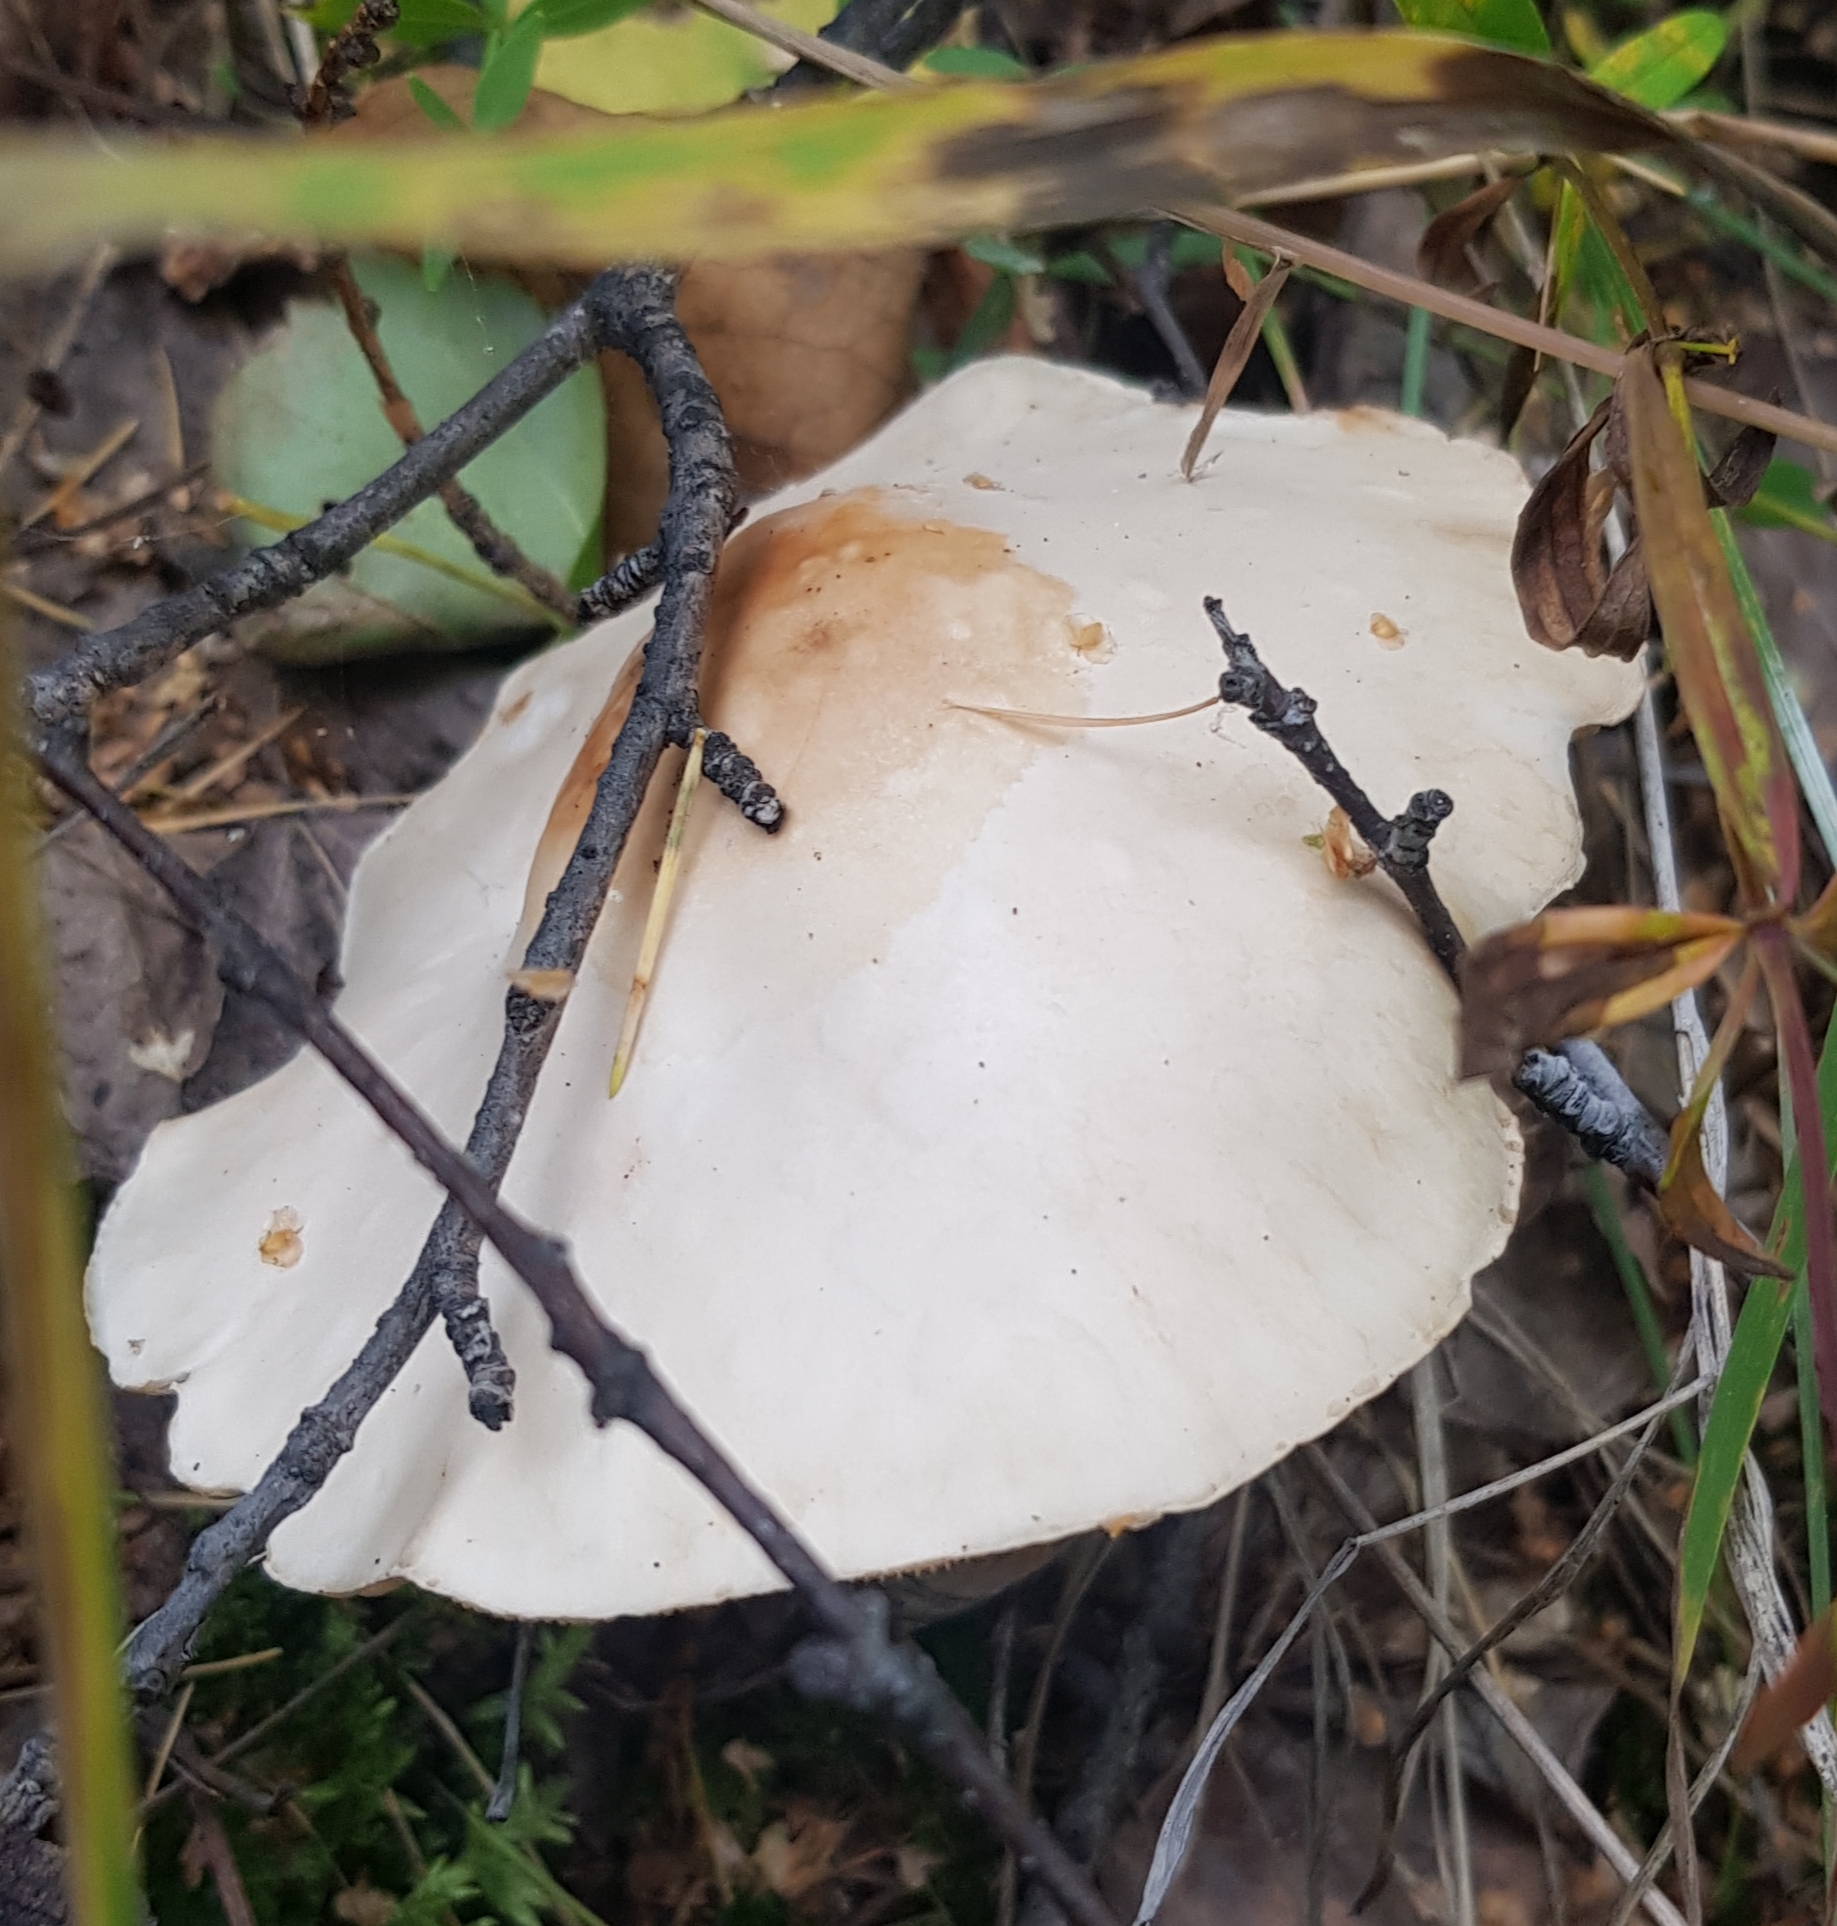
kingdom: Fungi
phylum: Basidiomycota
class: Agaricomycetes
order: Agaricales
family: Inocybaceae
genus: Inocybe
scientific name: Inocybe whitei
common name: Blushing fibrecap
